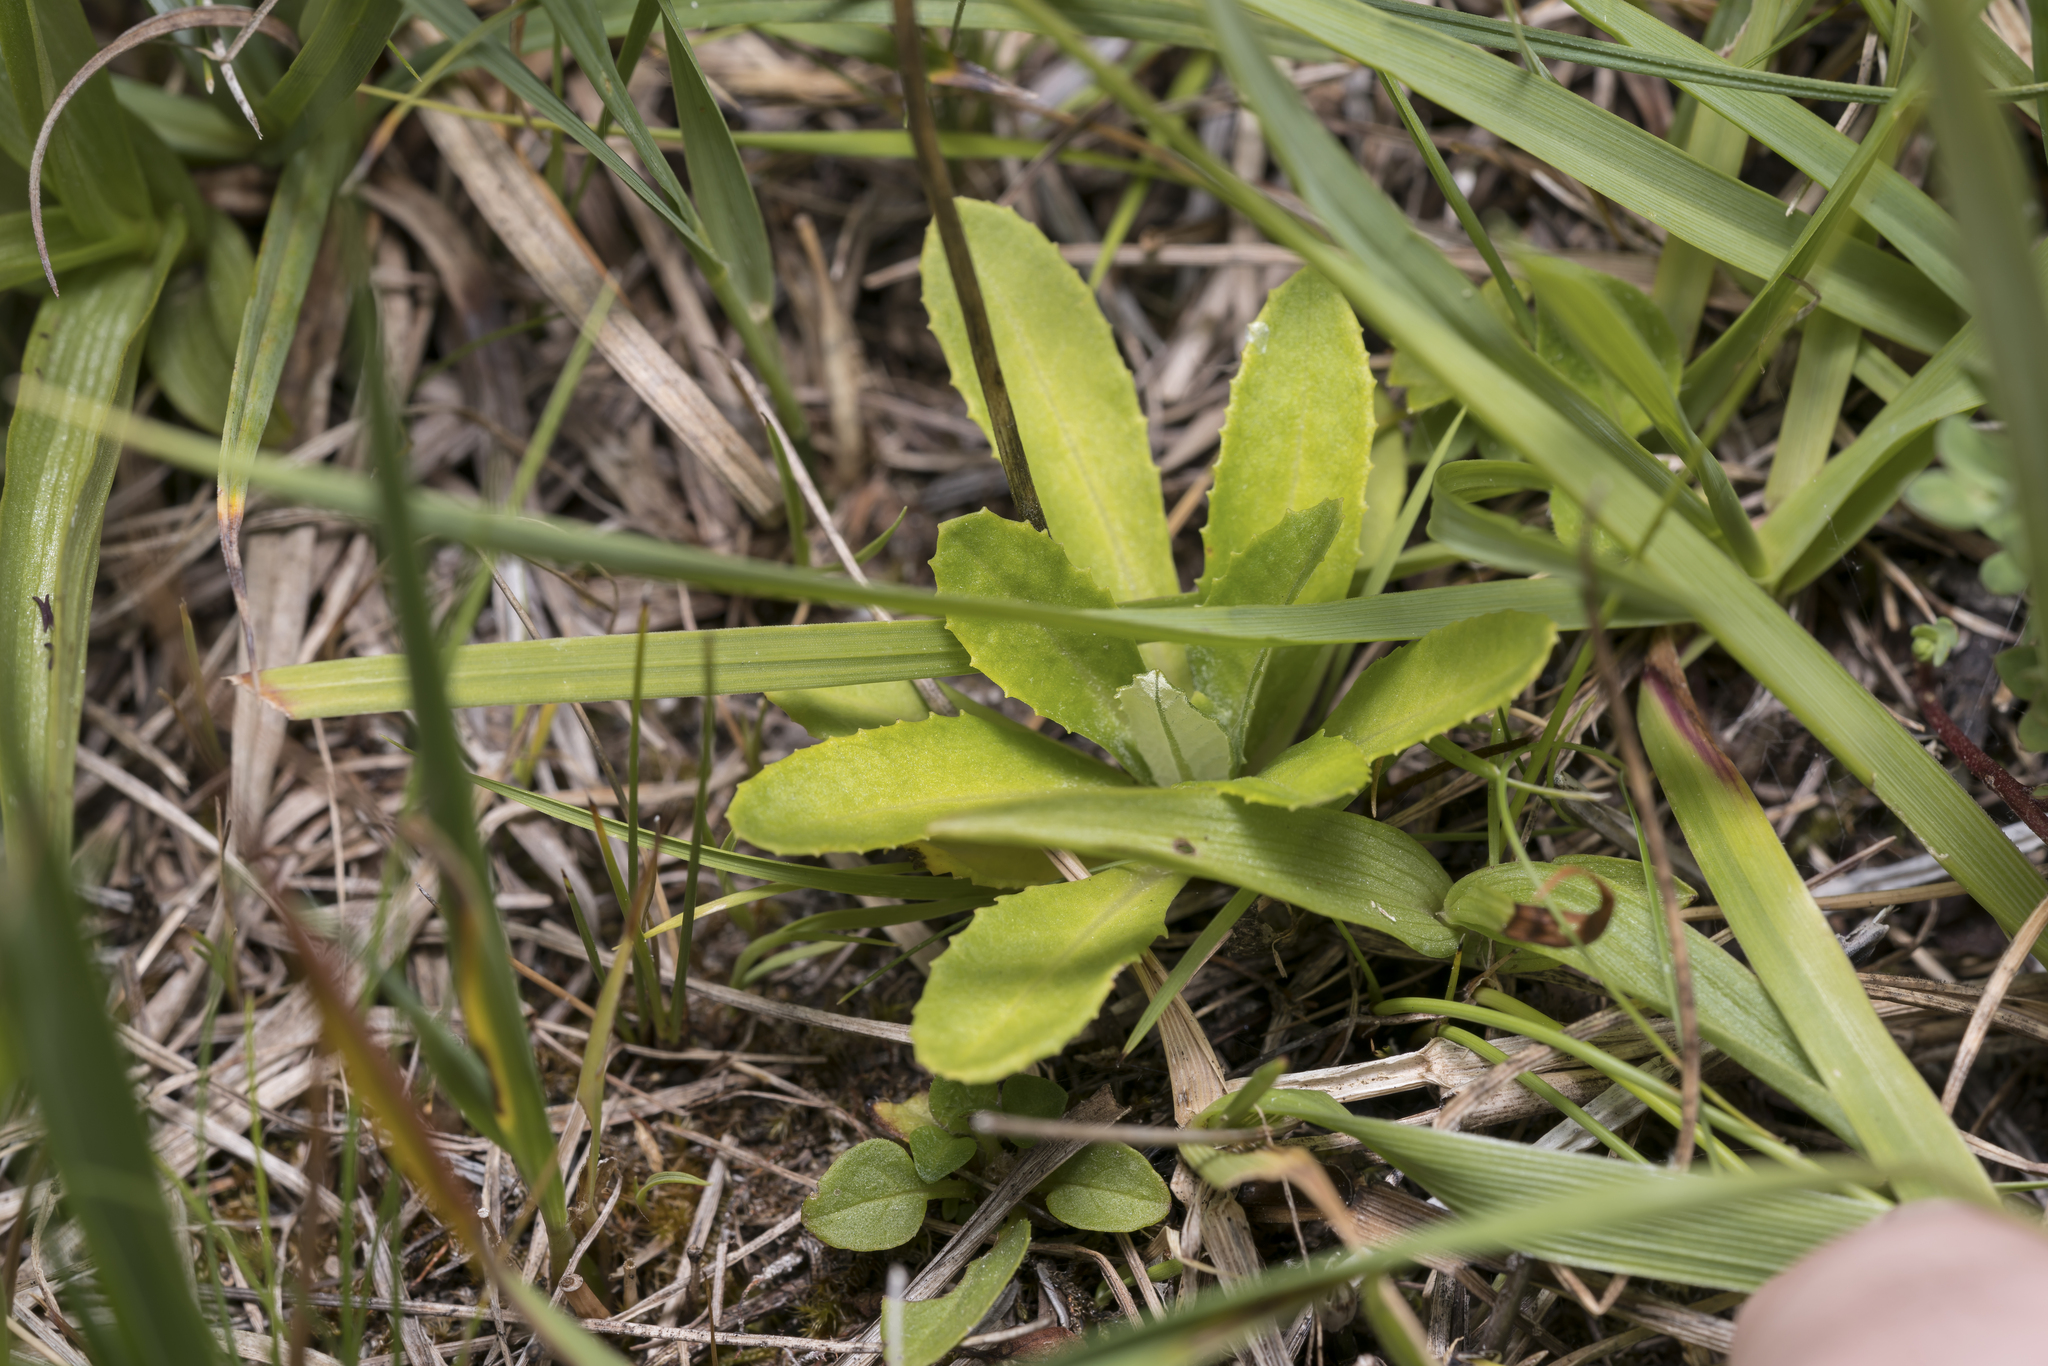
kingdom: Plantae
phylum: Tracheophyta
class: Magnoliopsida
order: Ericales
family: Primulaceae
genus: Primula
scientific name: Primula farinosa
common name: Bird's-eye primrose
